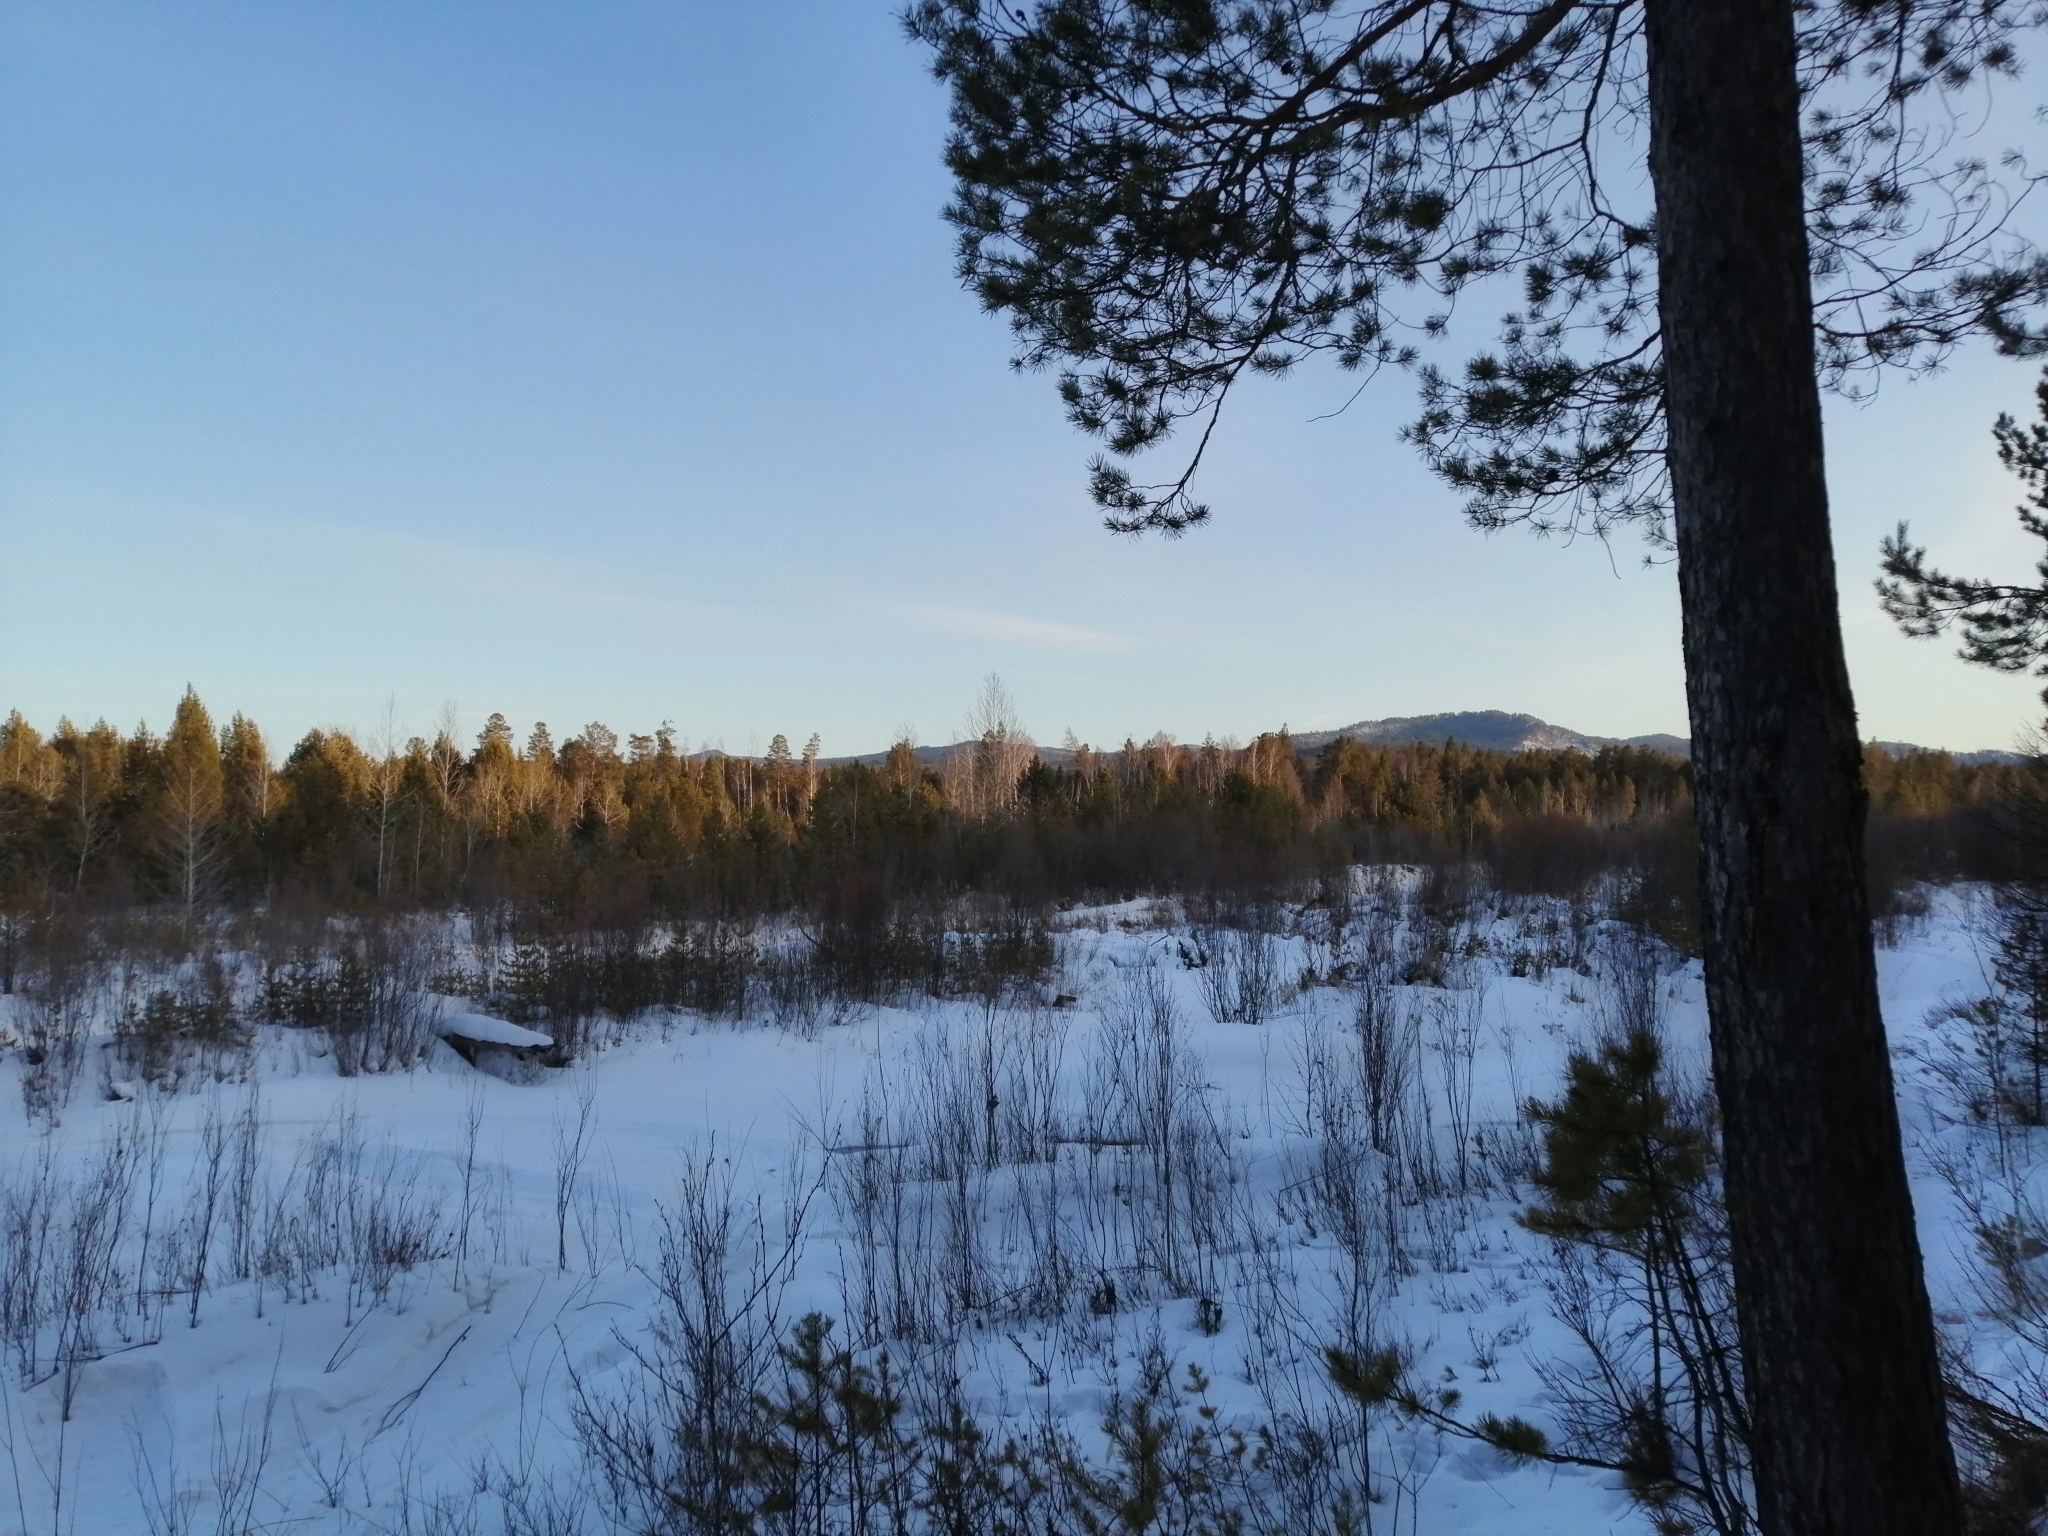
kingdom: Plantae
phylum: Tracheophyta
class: Pinopsida
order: Pinales
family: Pinaceae
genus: Pinus
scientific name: Pinus sylvestris
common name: Scots pine
